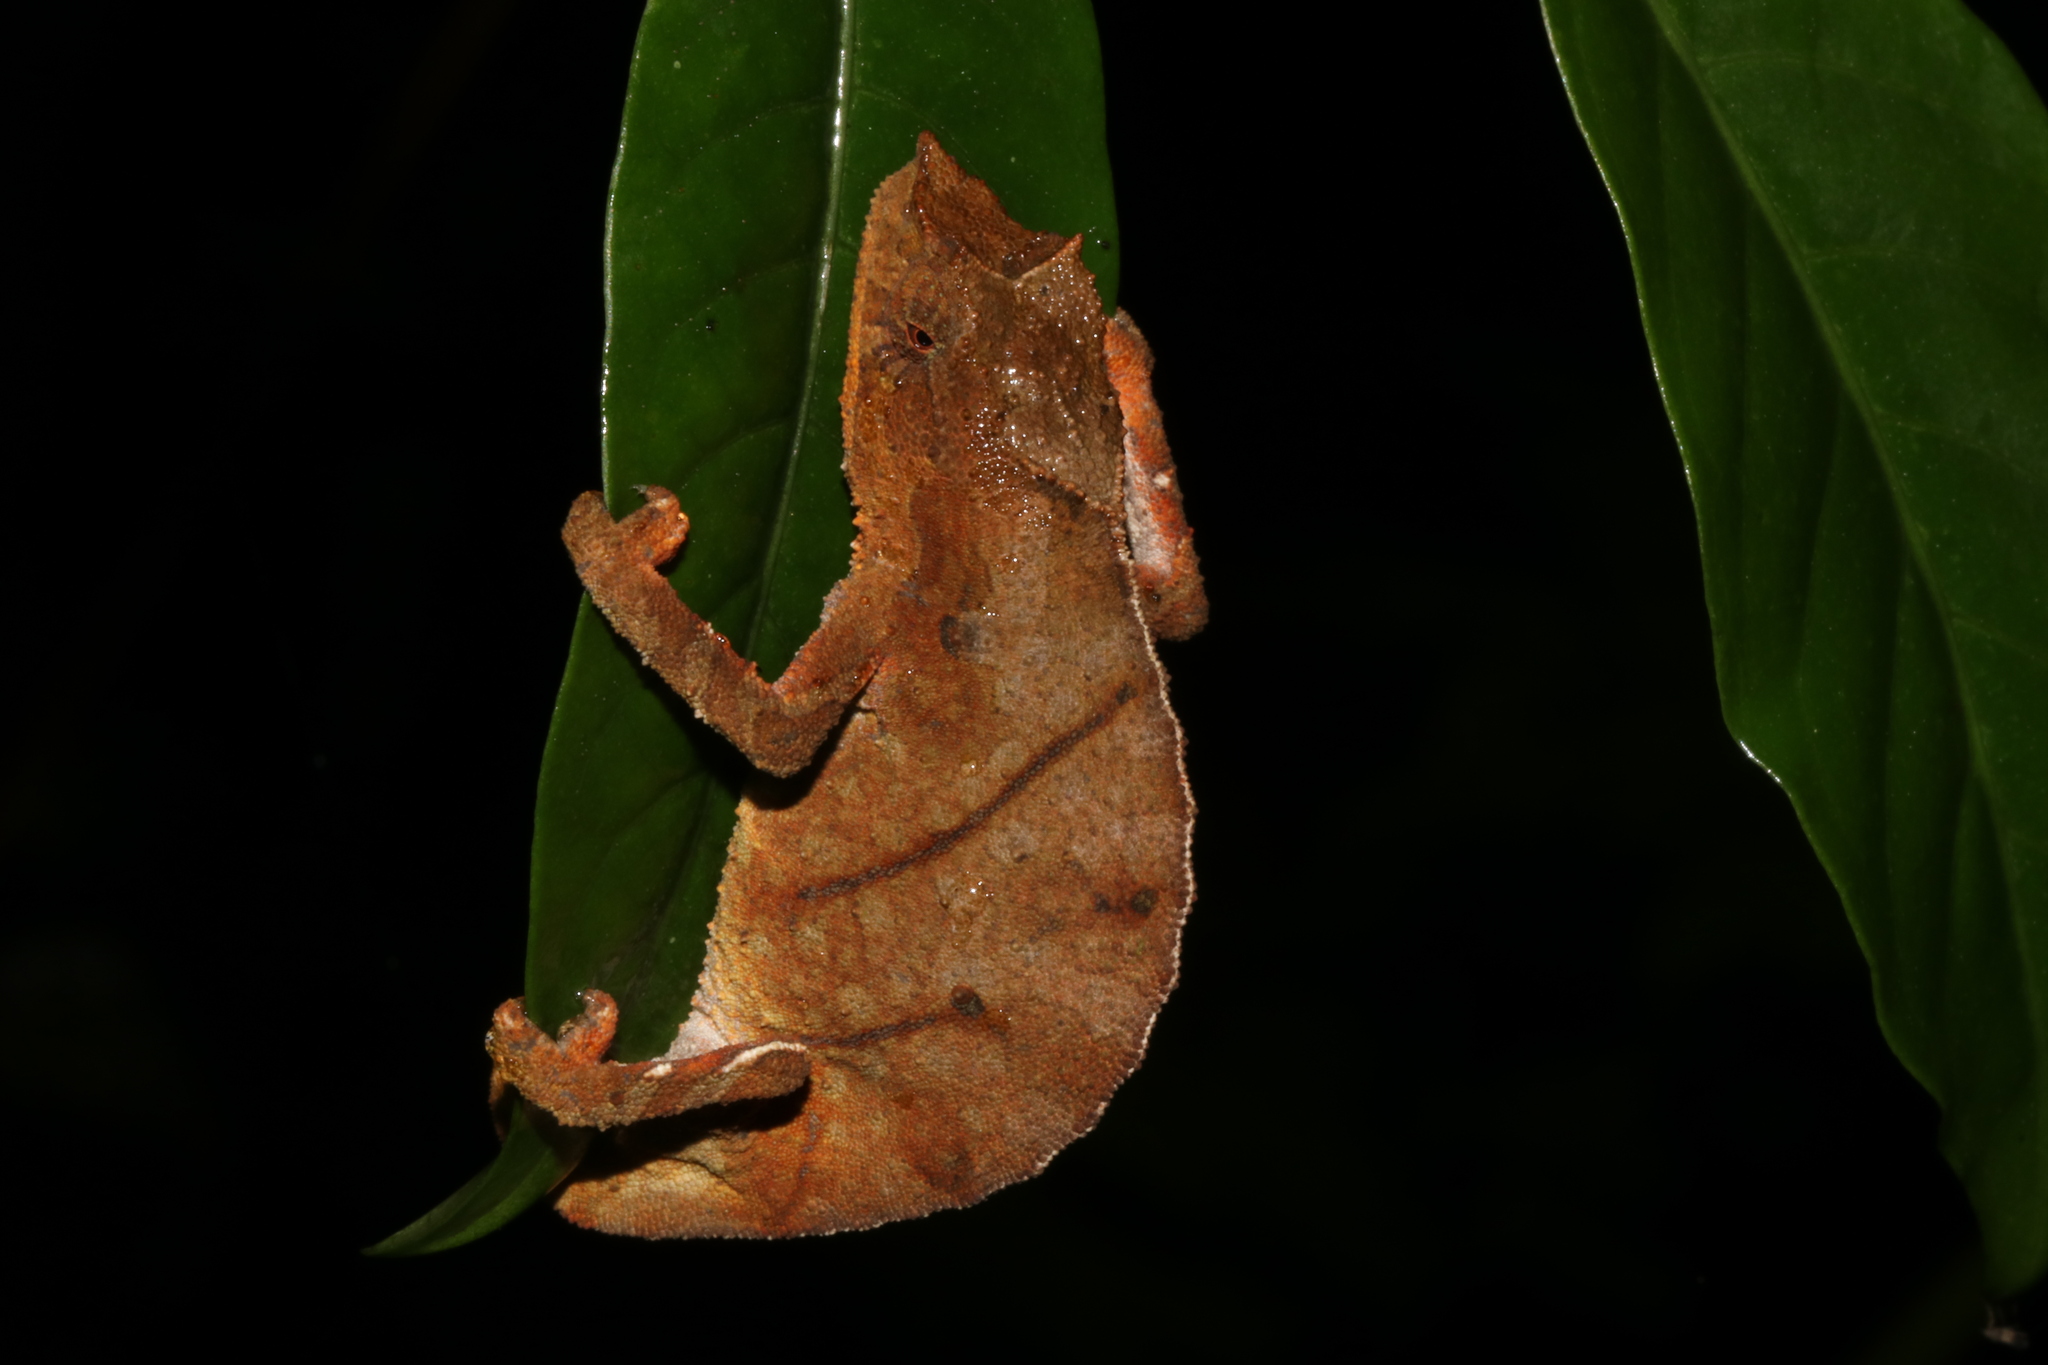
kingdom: Animalia
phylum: Chordata
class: Squamata
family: Chamaeleonidae
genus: Rhampholeon
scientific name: Rhampholeon nchisiensis
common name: South african stumptail chameleon
